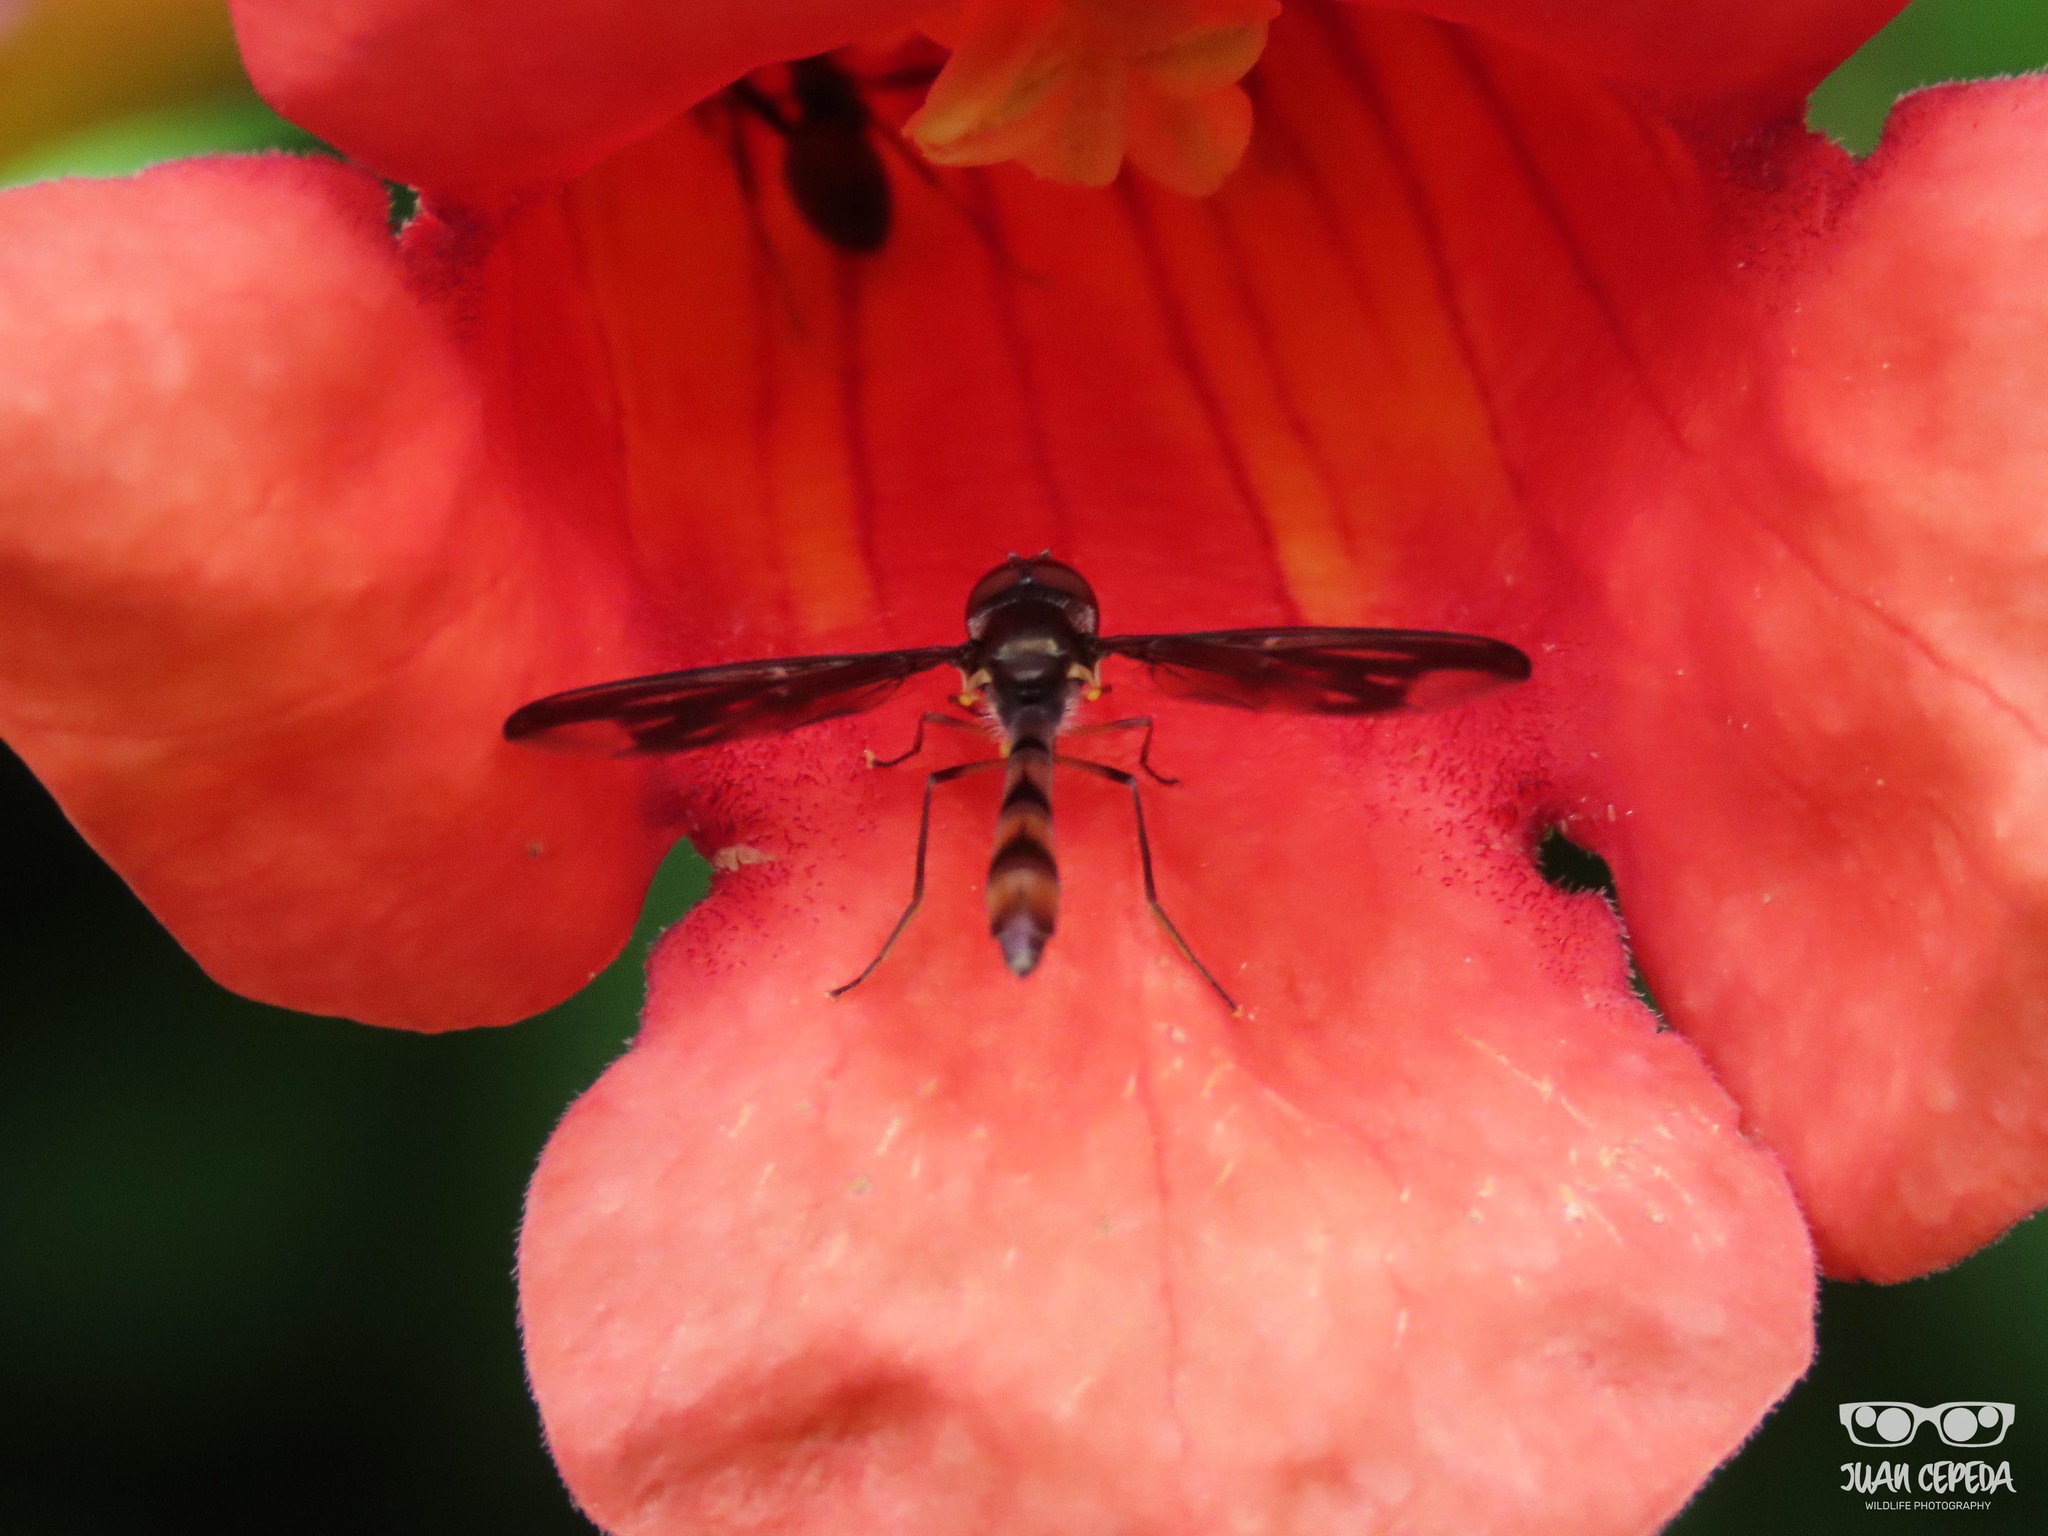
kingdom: Animalia
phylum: Arthropoda
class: Insecta
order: Diptera
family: Syrphidae
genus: Ocyptamus
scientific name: Ocyptamus fuscipennis
